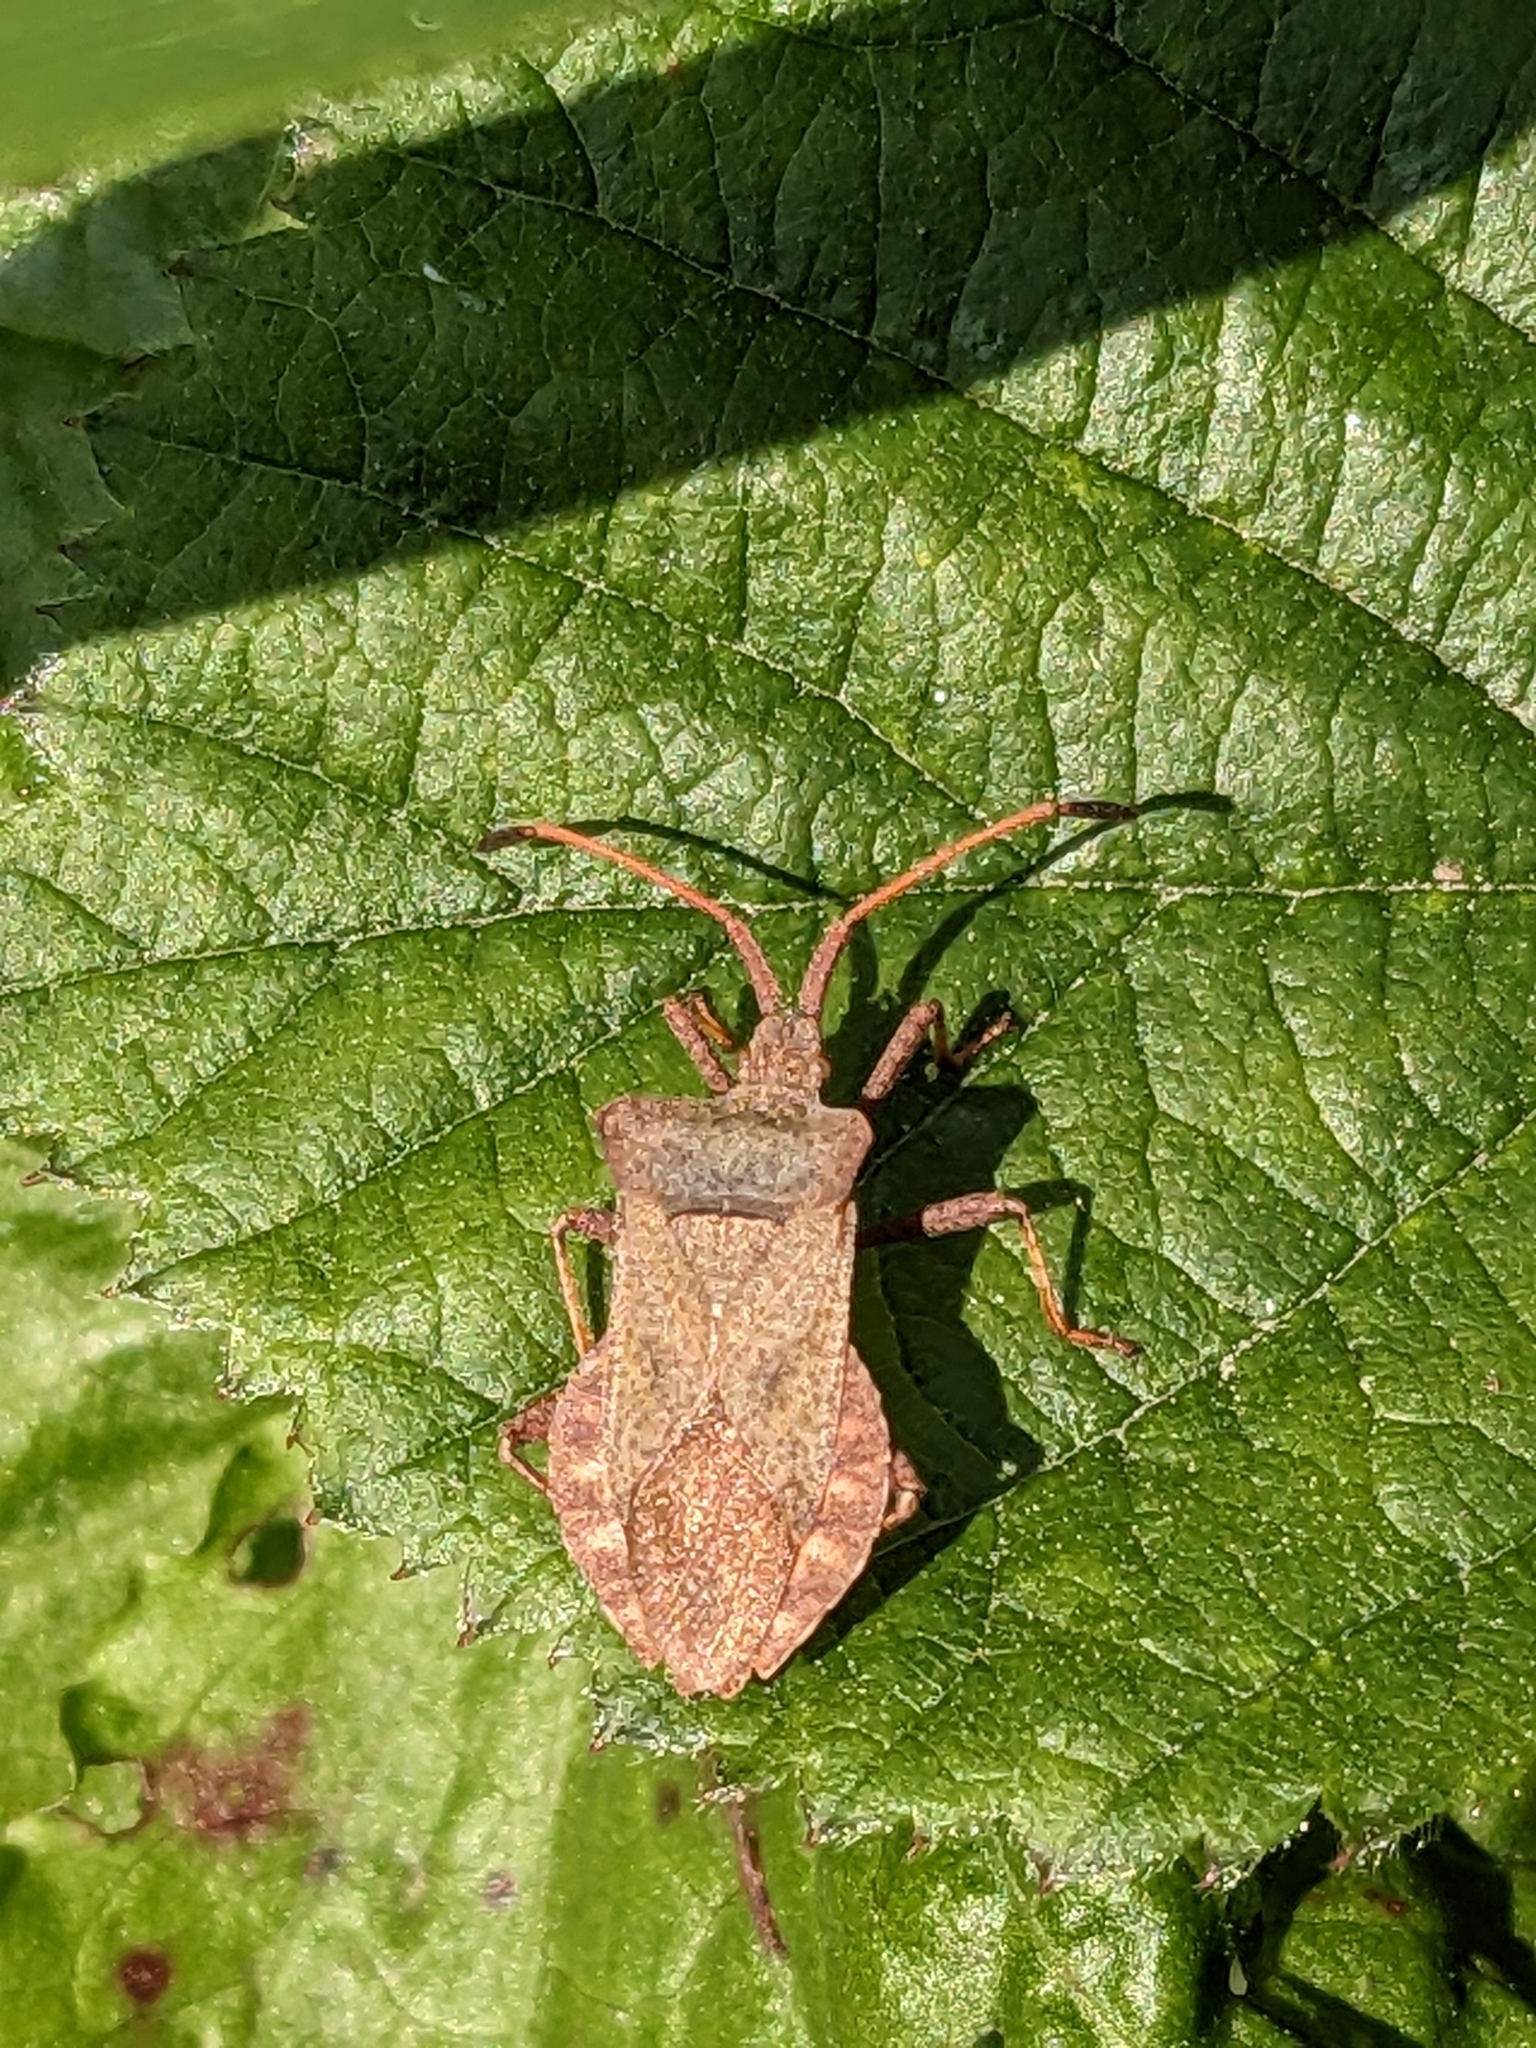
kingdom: Animalia
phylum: Arthropoda
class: Insecta
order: Hemiptera
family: Coreidae
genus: Coreus
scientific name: Coreus marginatus
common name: Dock bug
